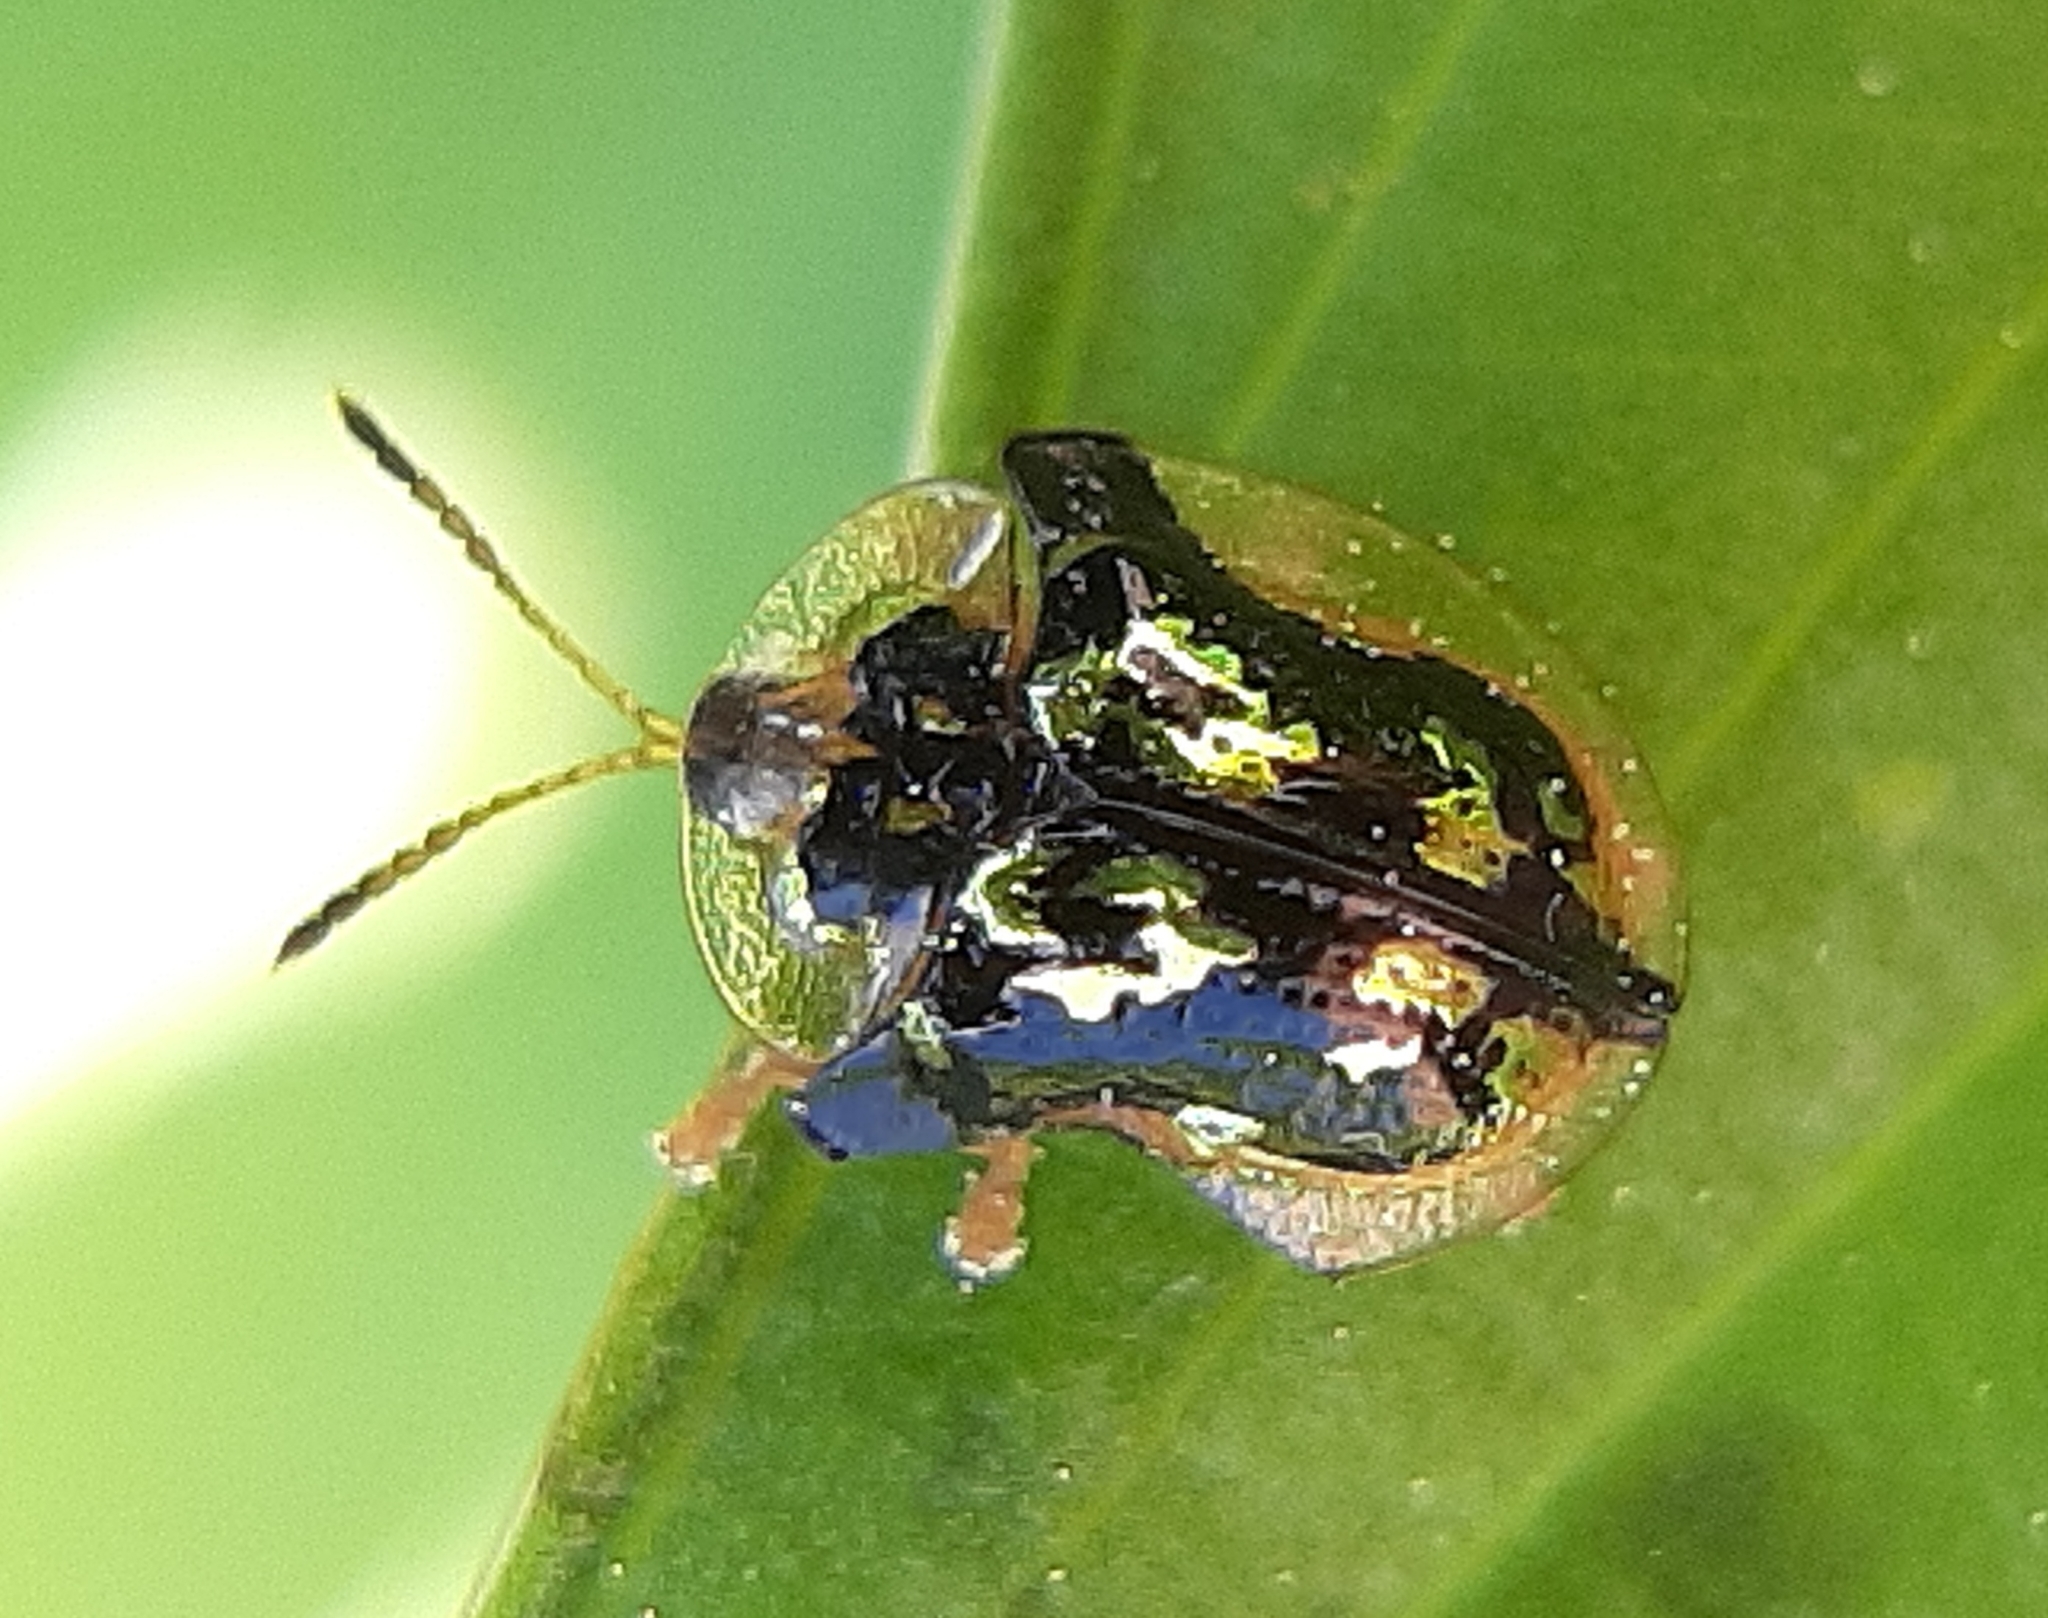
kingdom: Animalia
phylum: Arthropoda
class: Insecta
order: Coleoptera
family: Chrysomelidae
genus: Deloyala
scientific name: Deloyala guttata
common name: Mottled tortoise beetle
